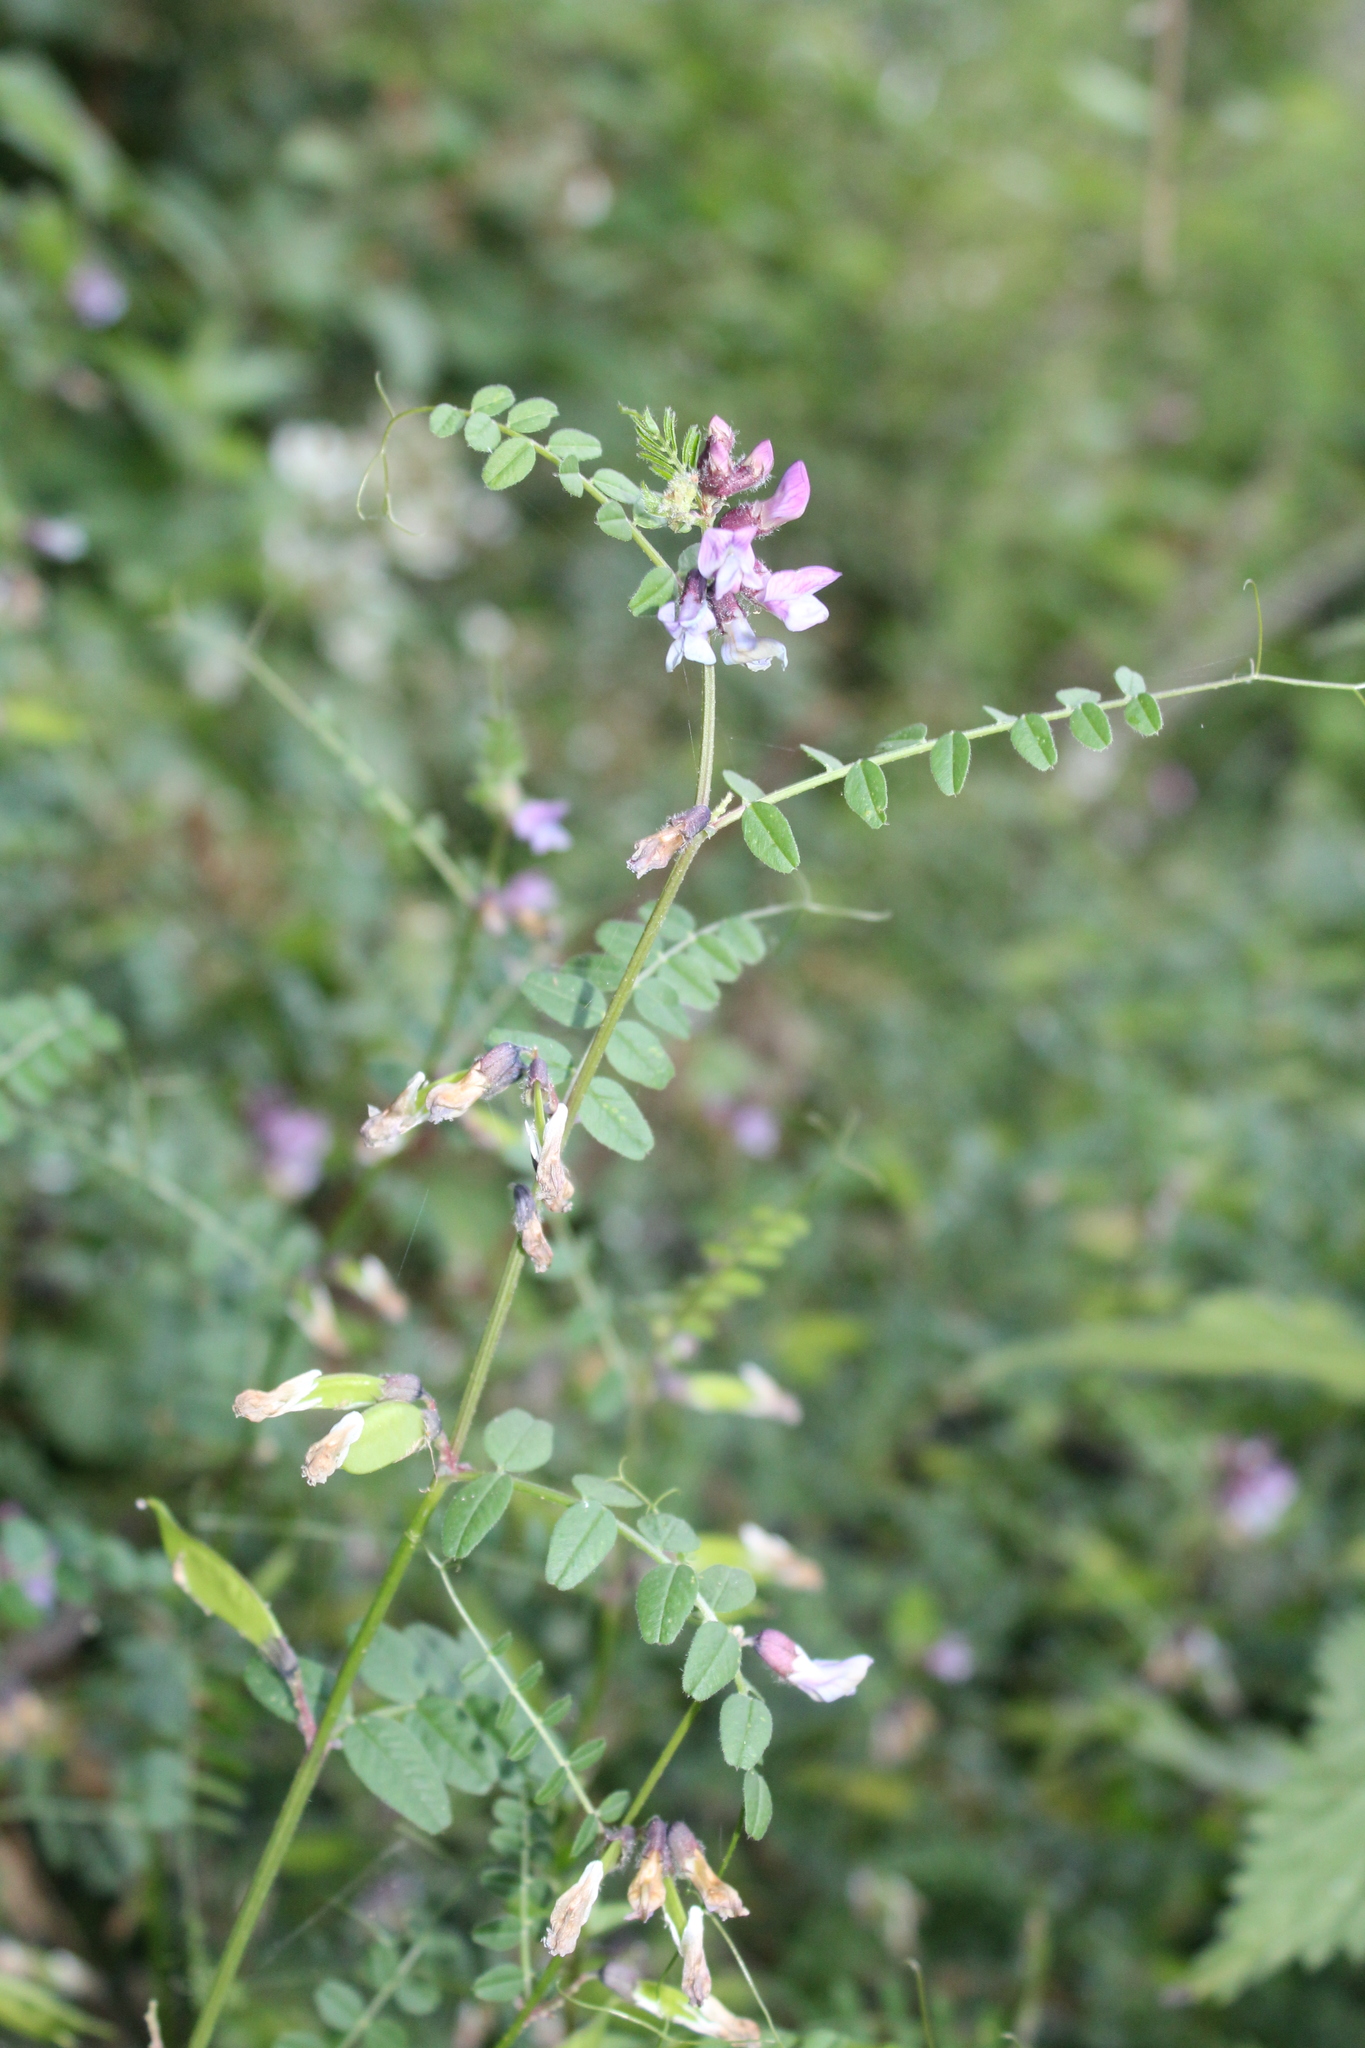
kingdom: Plantae
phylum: Tracheophyta
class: Magnoliopsida
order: Fabales
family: Fabaceae
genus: Vicia
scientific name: Vicia sepium
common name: Bush vetch
